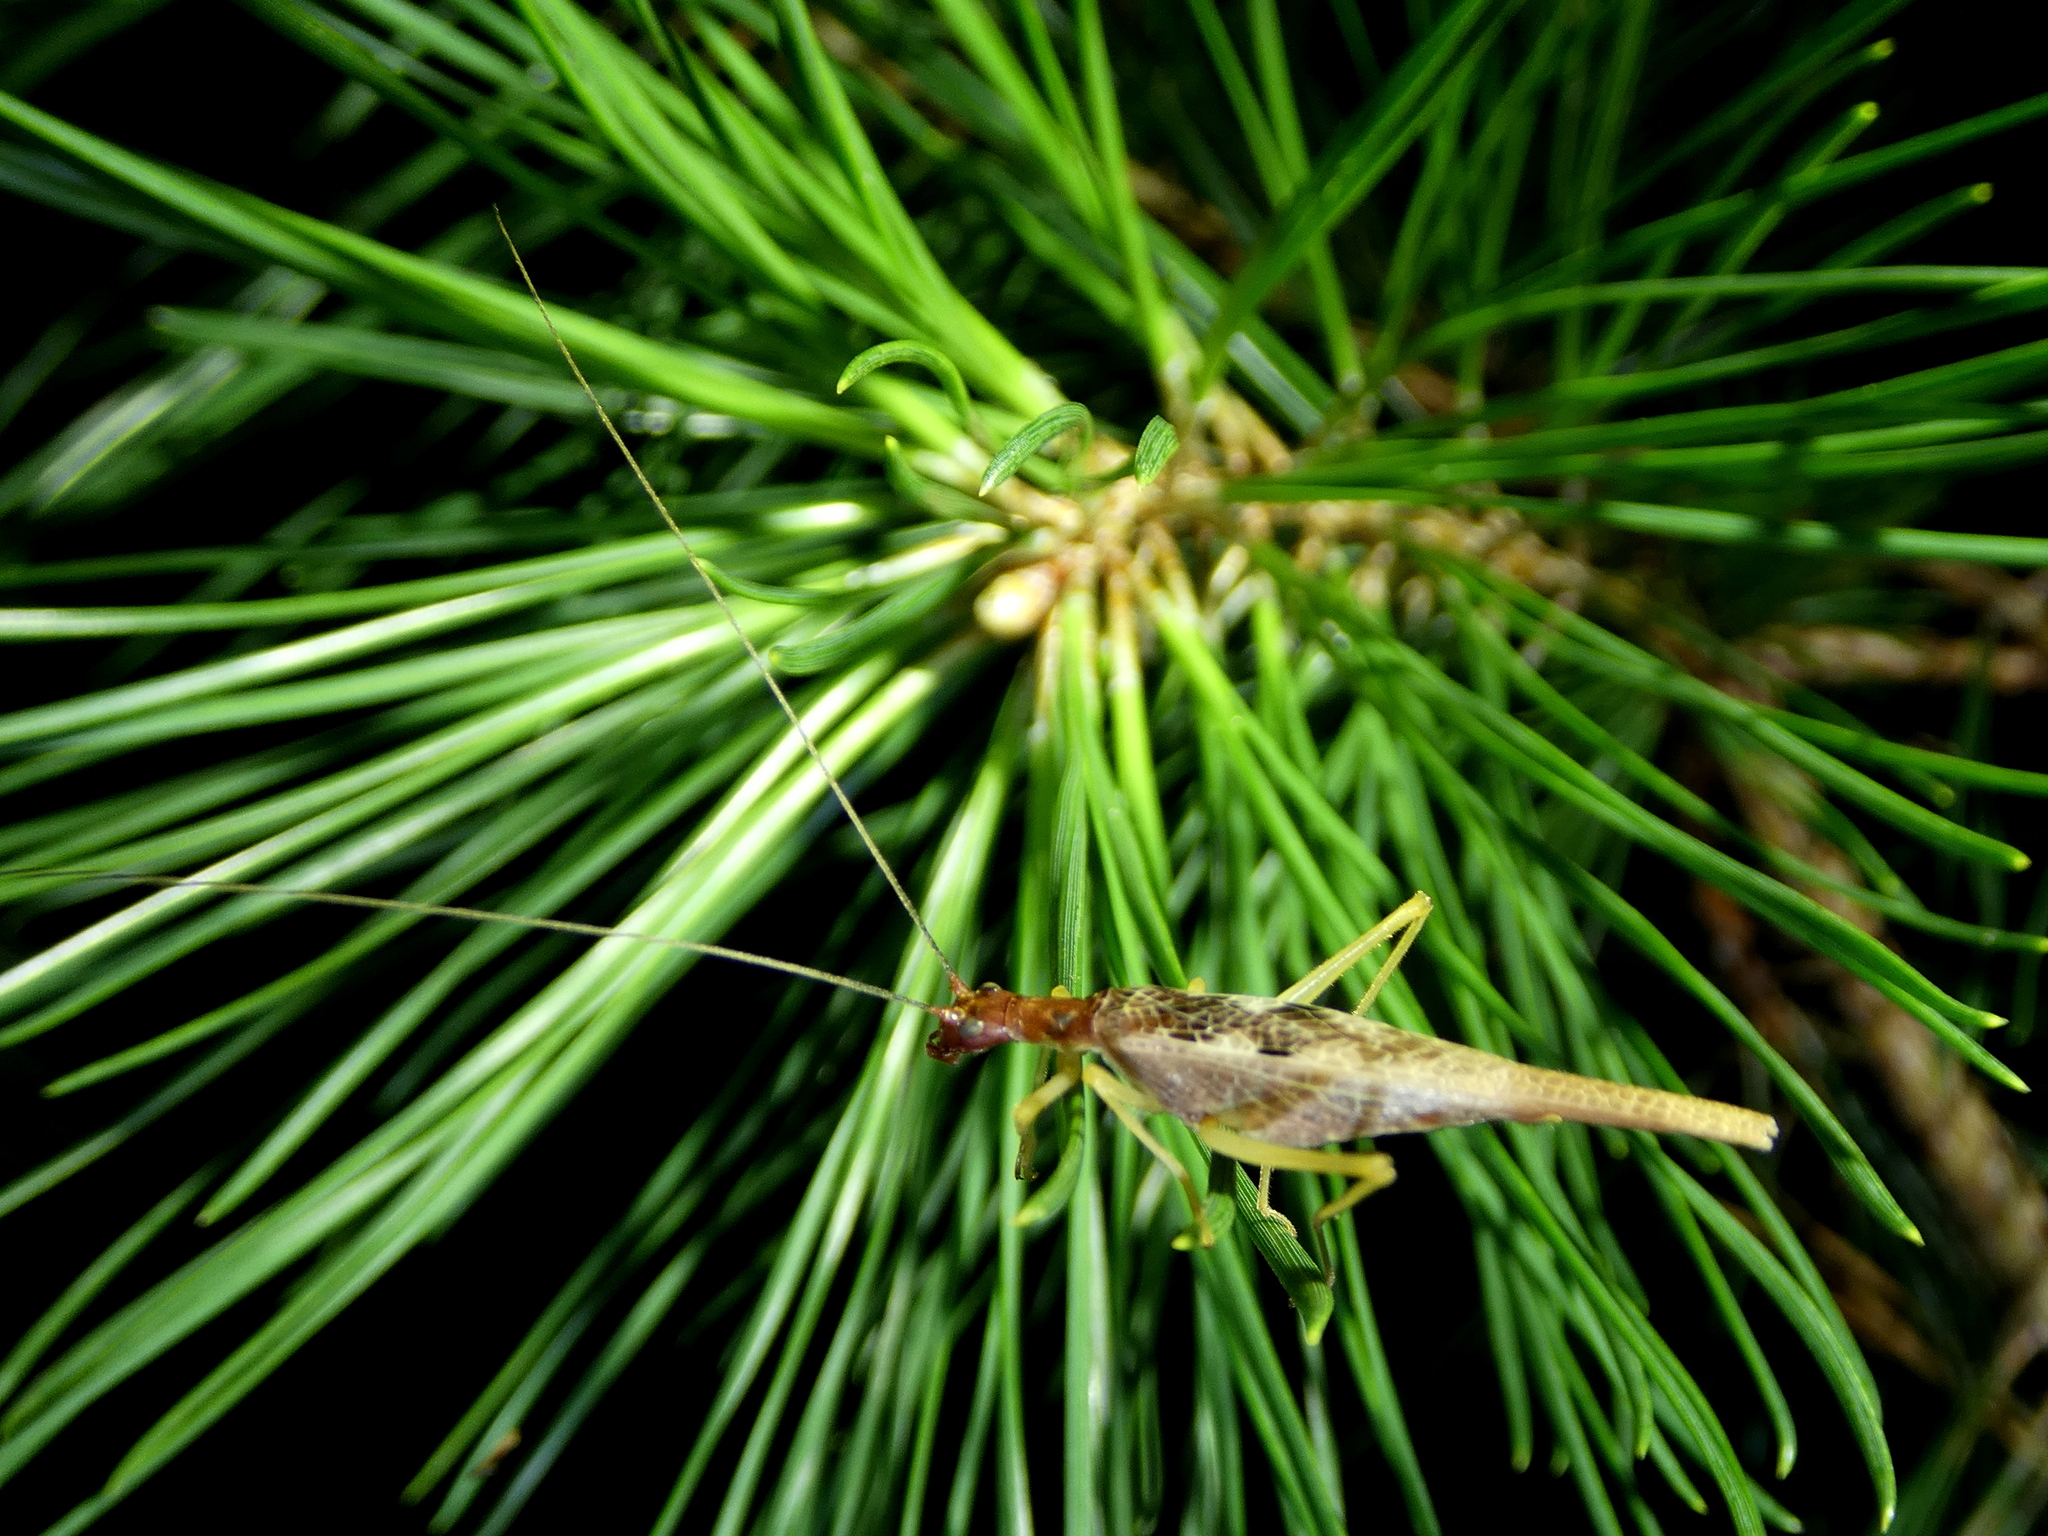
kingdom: Animalia
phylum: Arthropoda
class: Insecta
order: Orthoptera
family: Gryllidae
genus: Neoxabea
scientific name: Neoxabea bipunctata
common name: Two-spotted tree cricket
